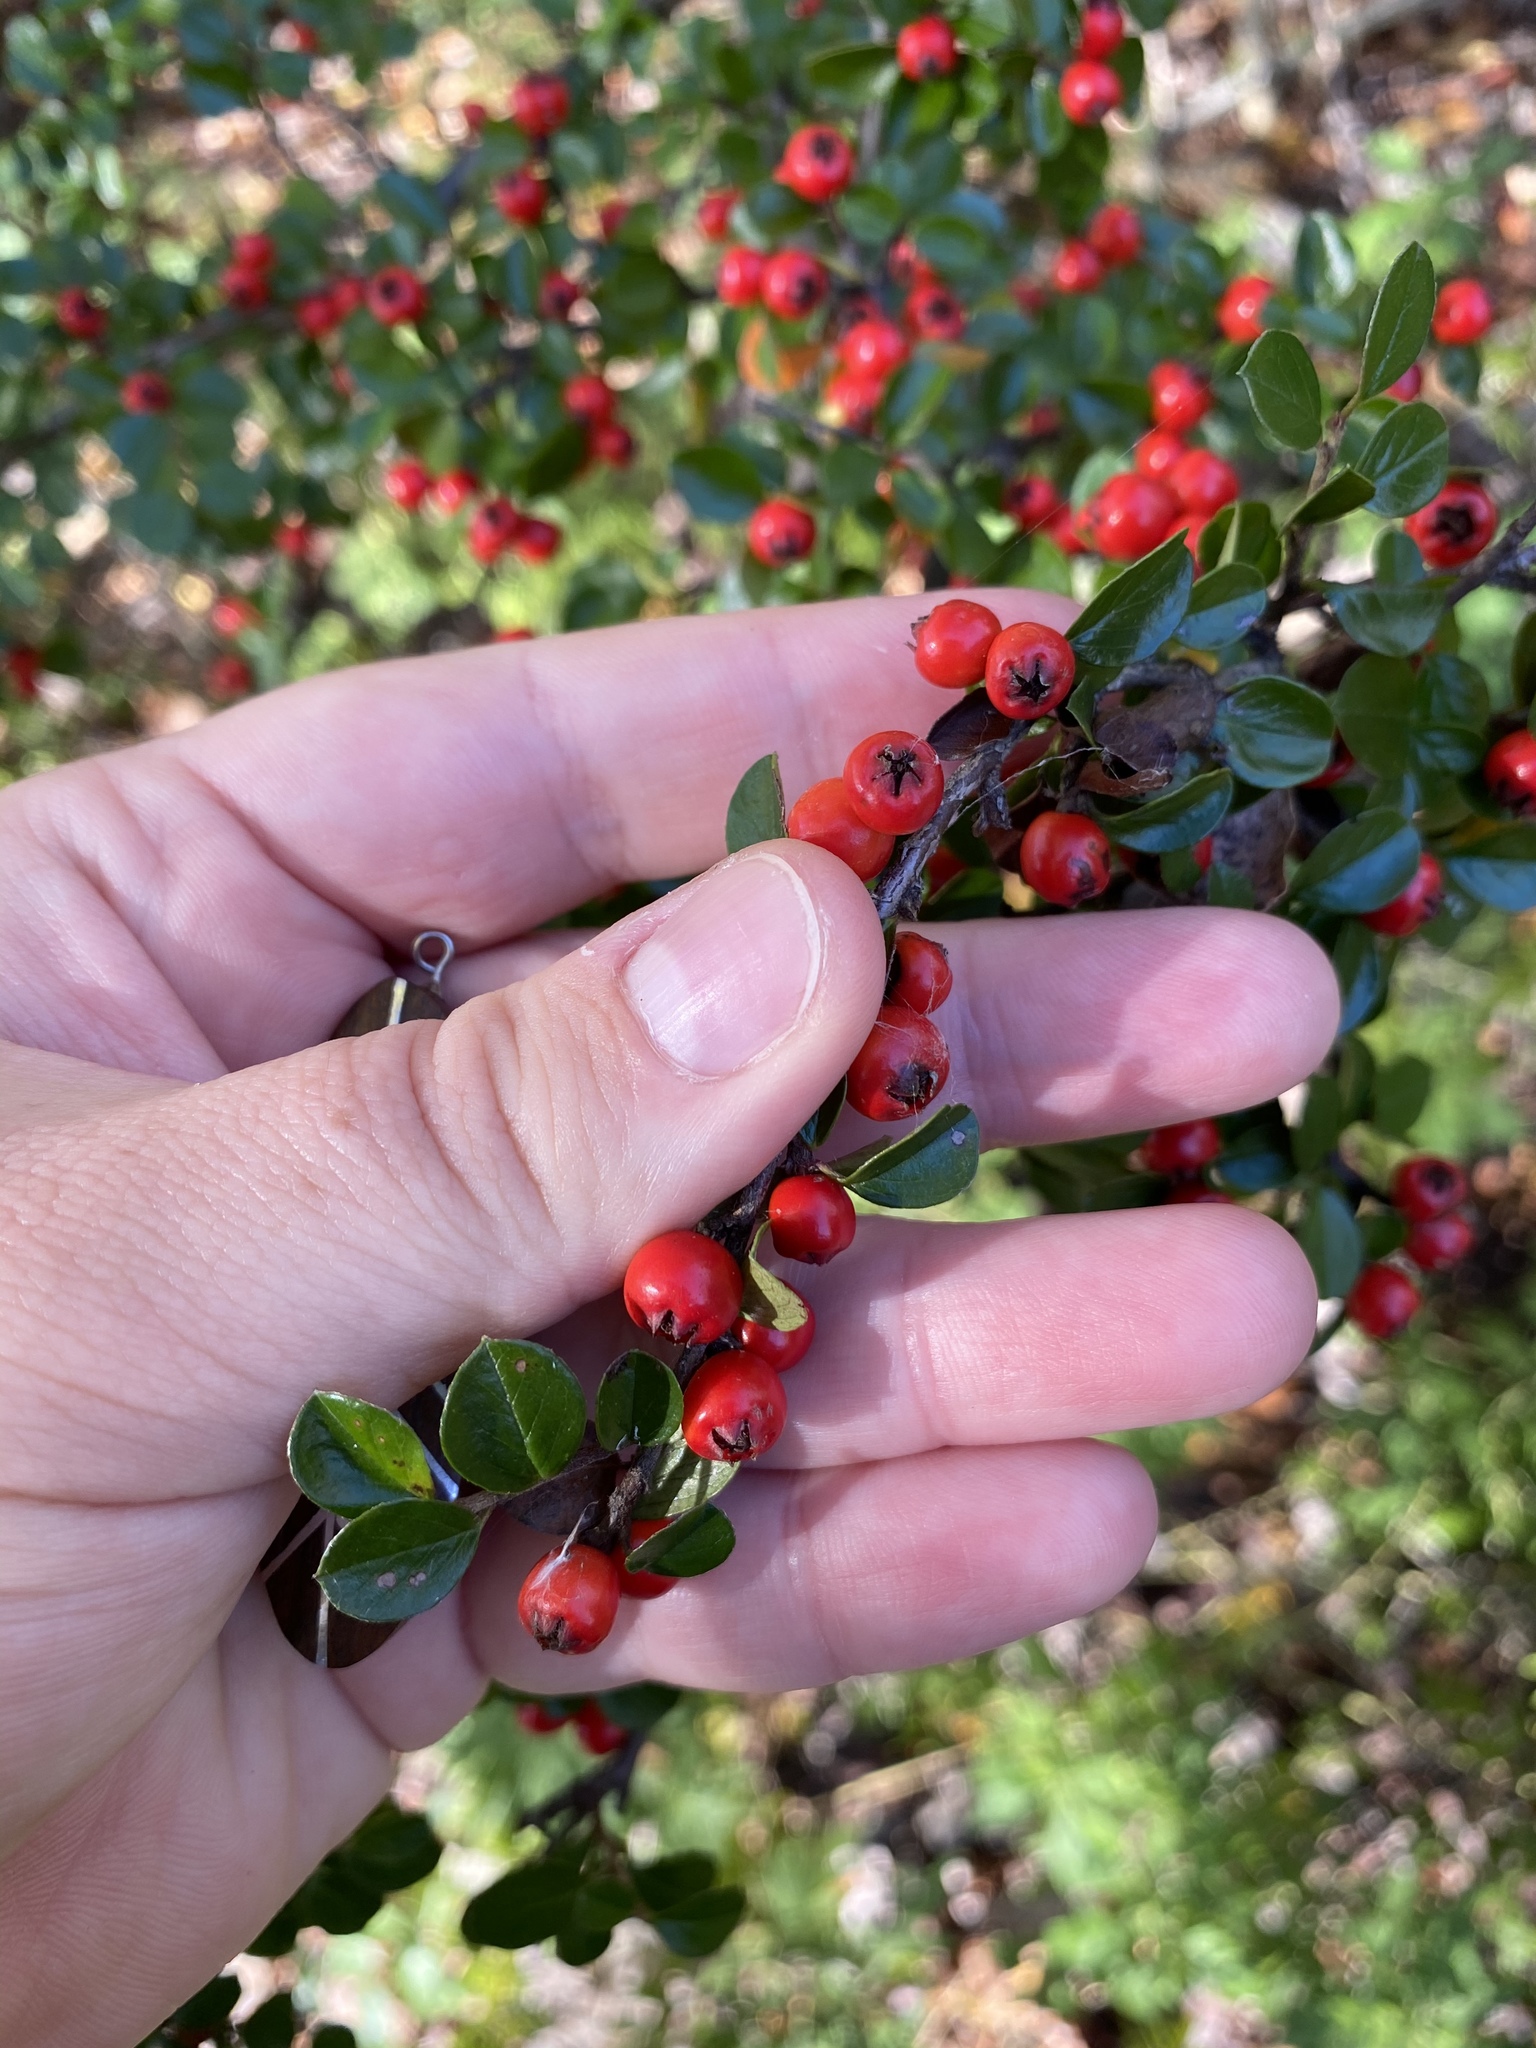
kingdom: Plantae
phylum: Tracheophyta
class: Magnoliopsida
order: Rosales
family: Rosaceae
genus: Cotoneaster
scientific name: Cotoneaster horizontalis
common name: Wall cotoneaster
